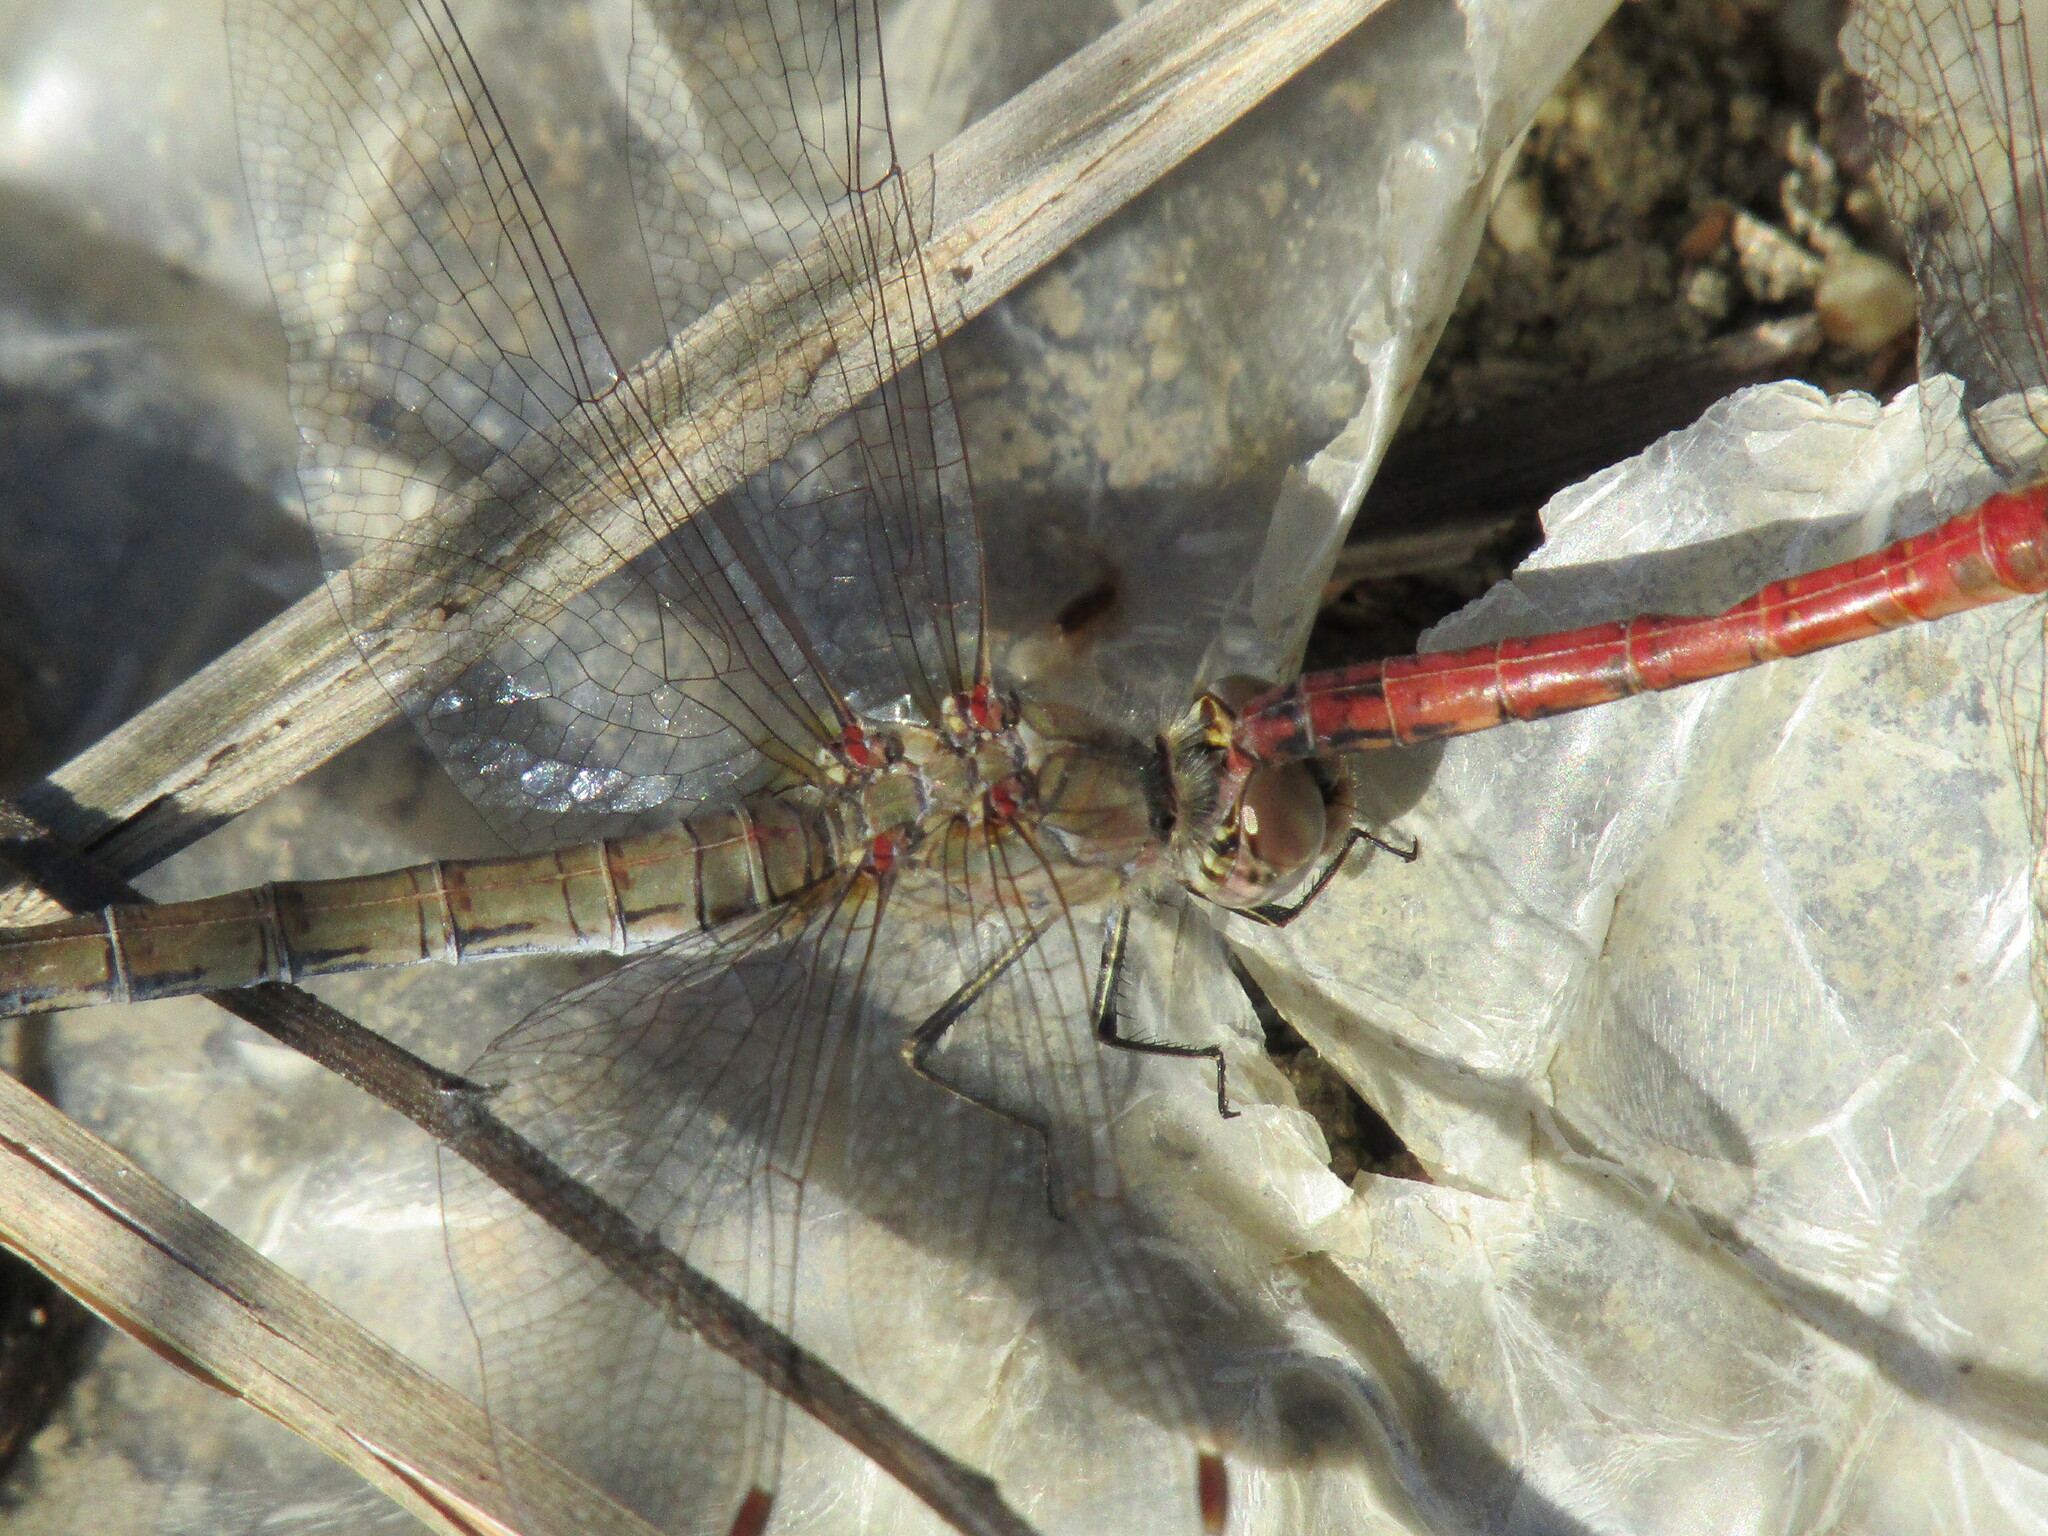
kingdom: Animalia
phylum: Arthropoda
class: Insecta
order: Odonata
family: Libellulidae
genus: Sympetrum
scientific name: Sympetrum striolatum
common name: Common darter
